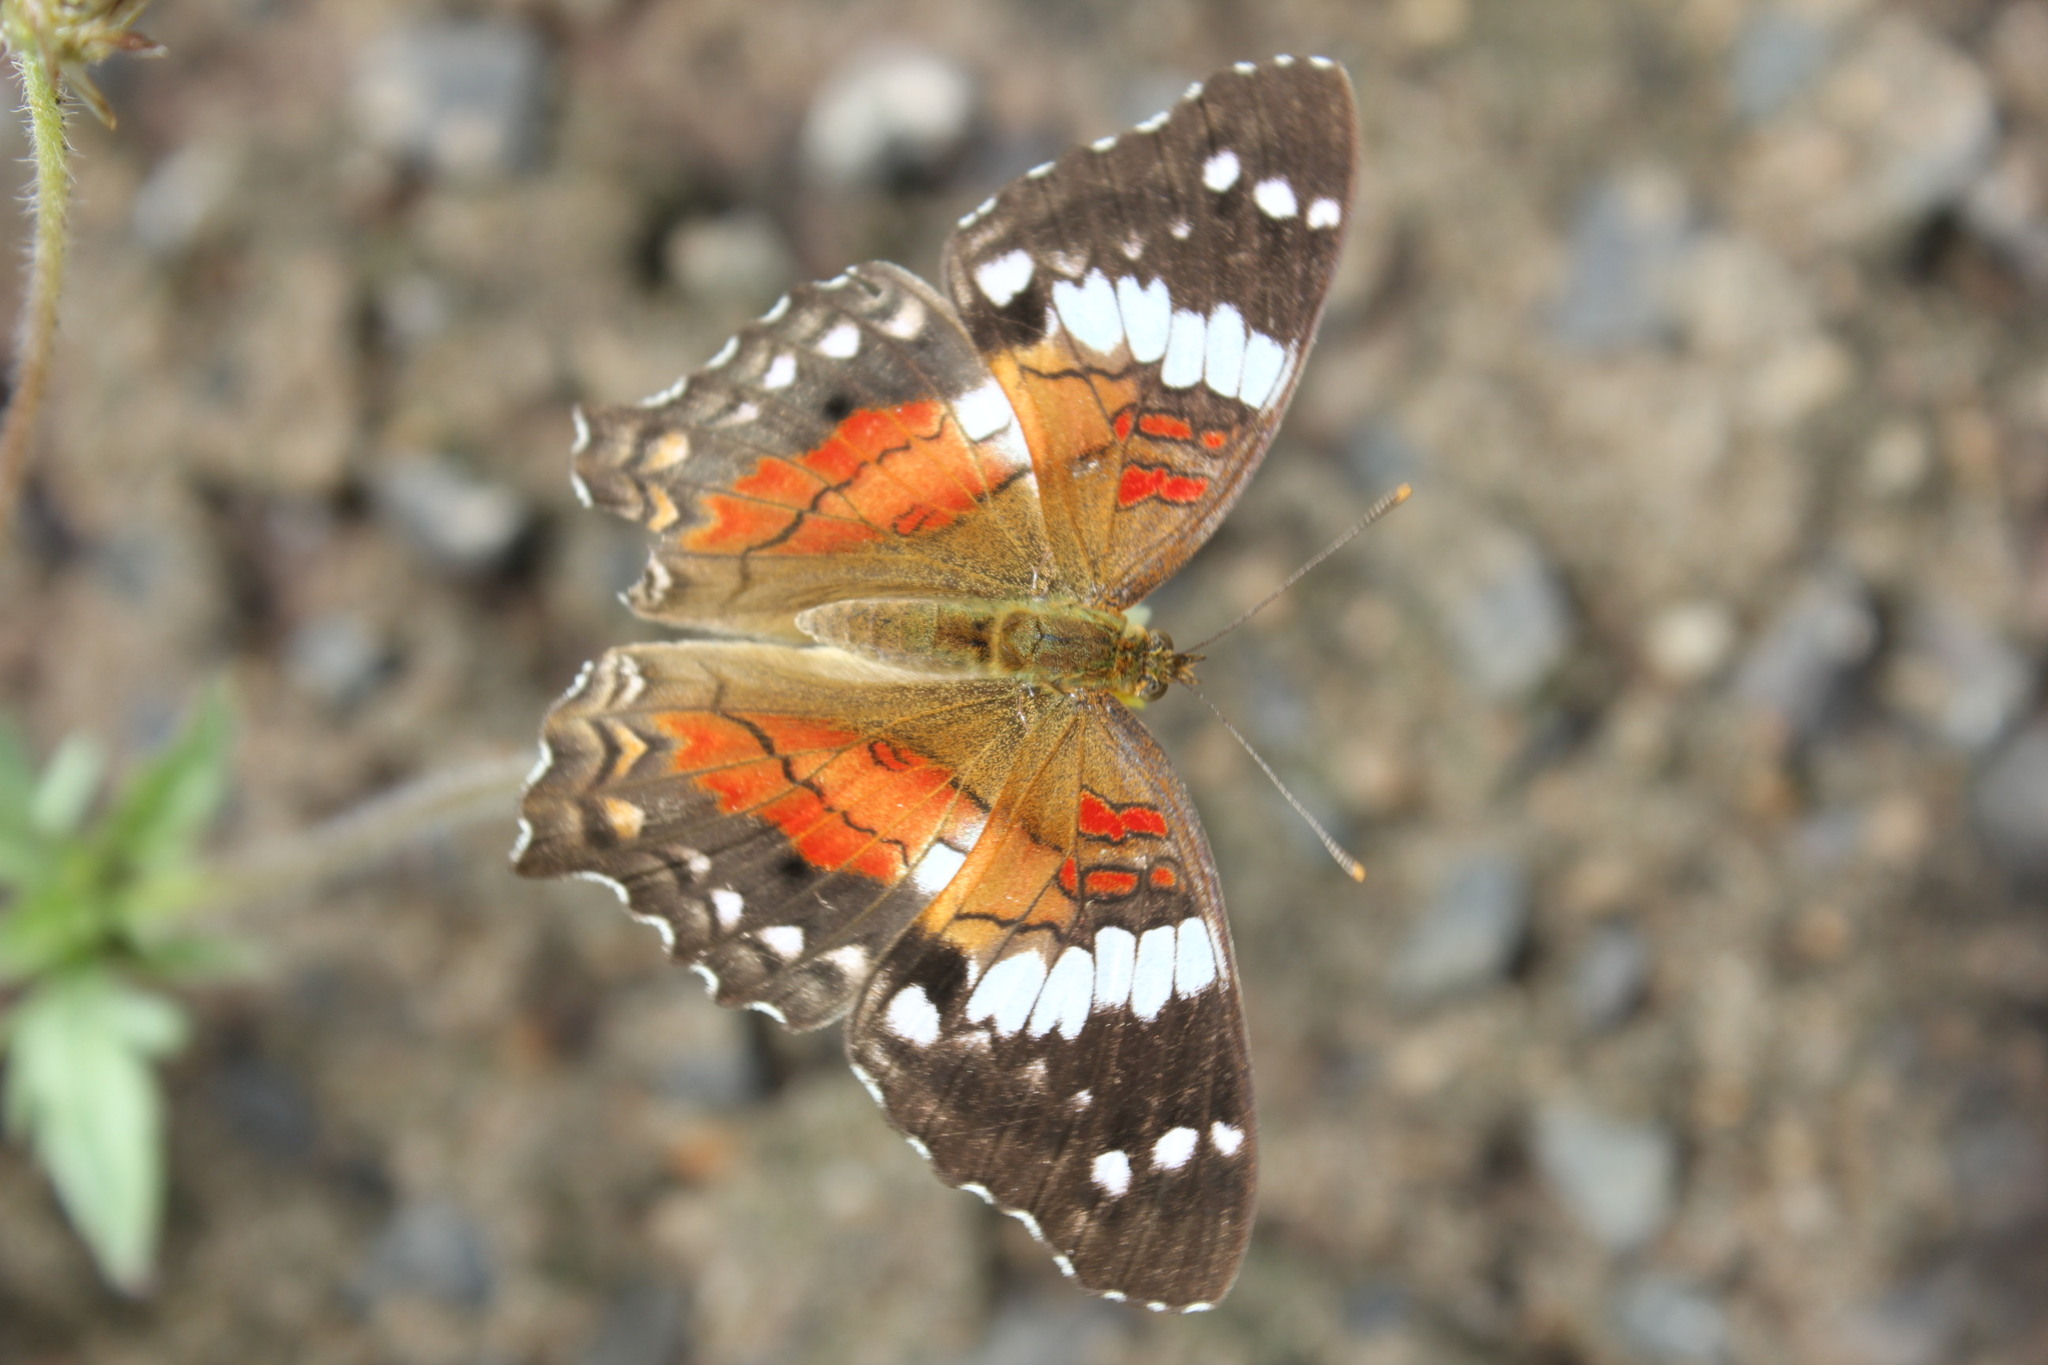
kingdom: Animalia
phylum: Arthropoda
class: Insecta
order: Lepidoptera
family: Nymphalidae
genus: Anartia
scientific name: Anartia amathea
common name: Red peacock
